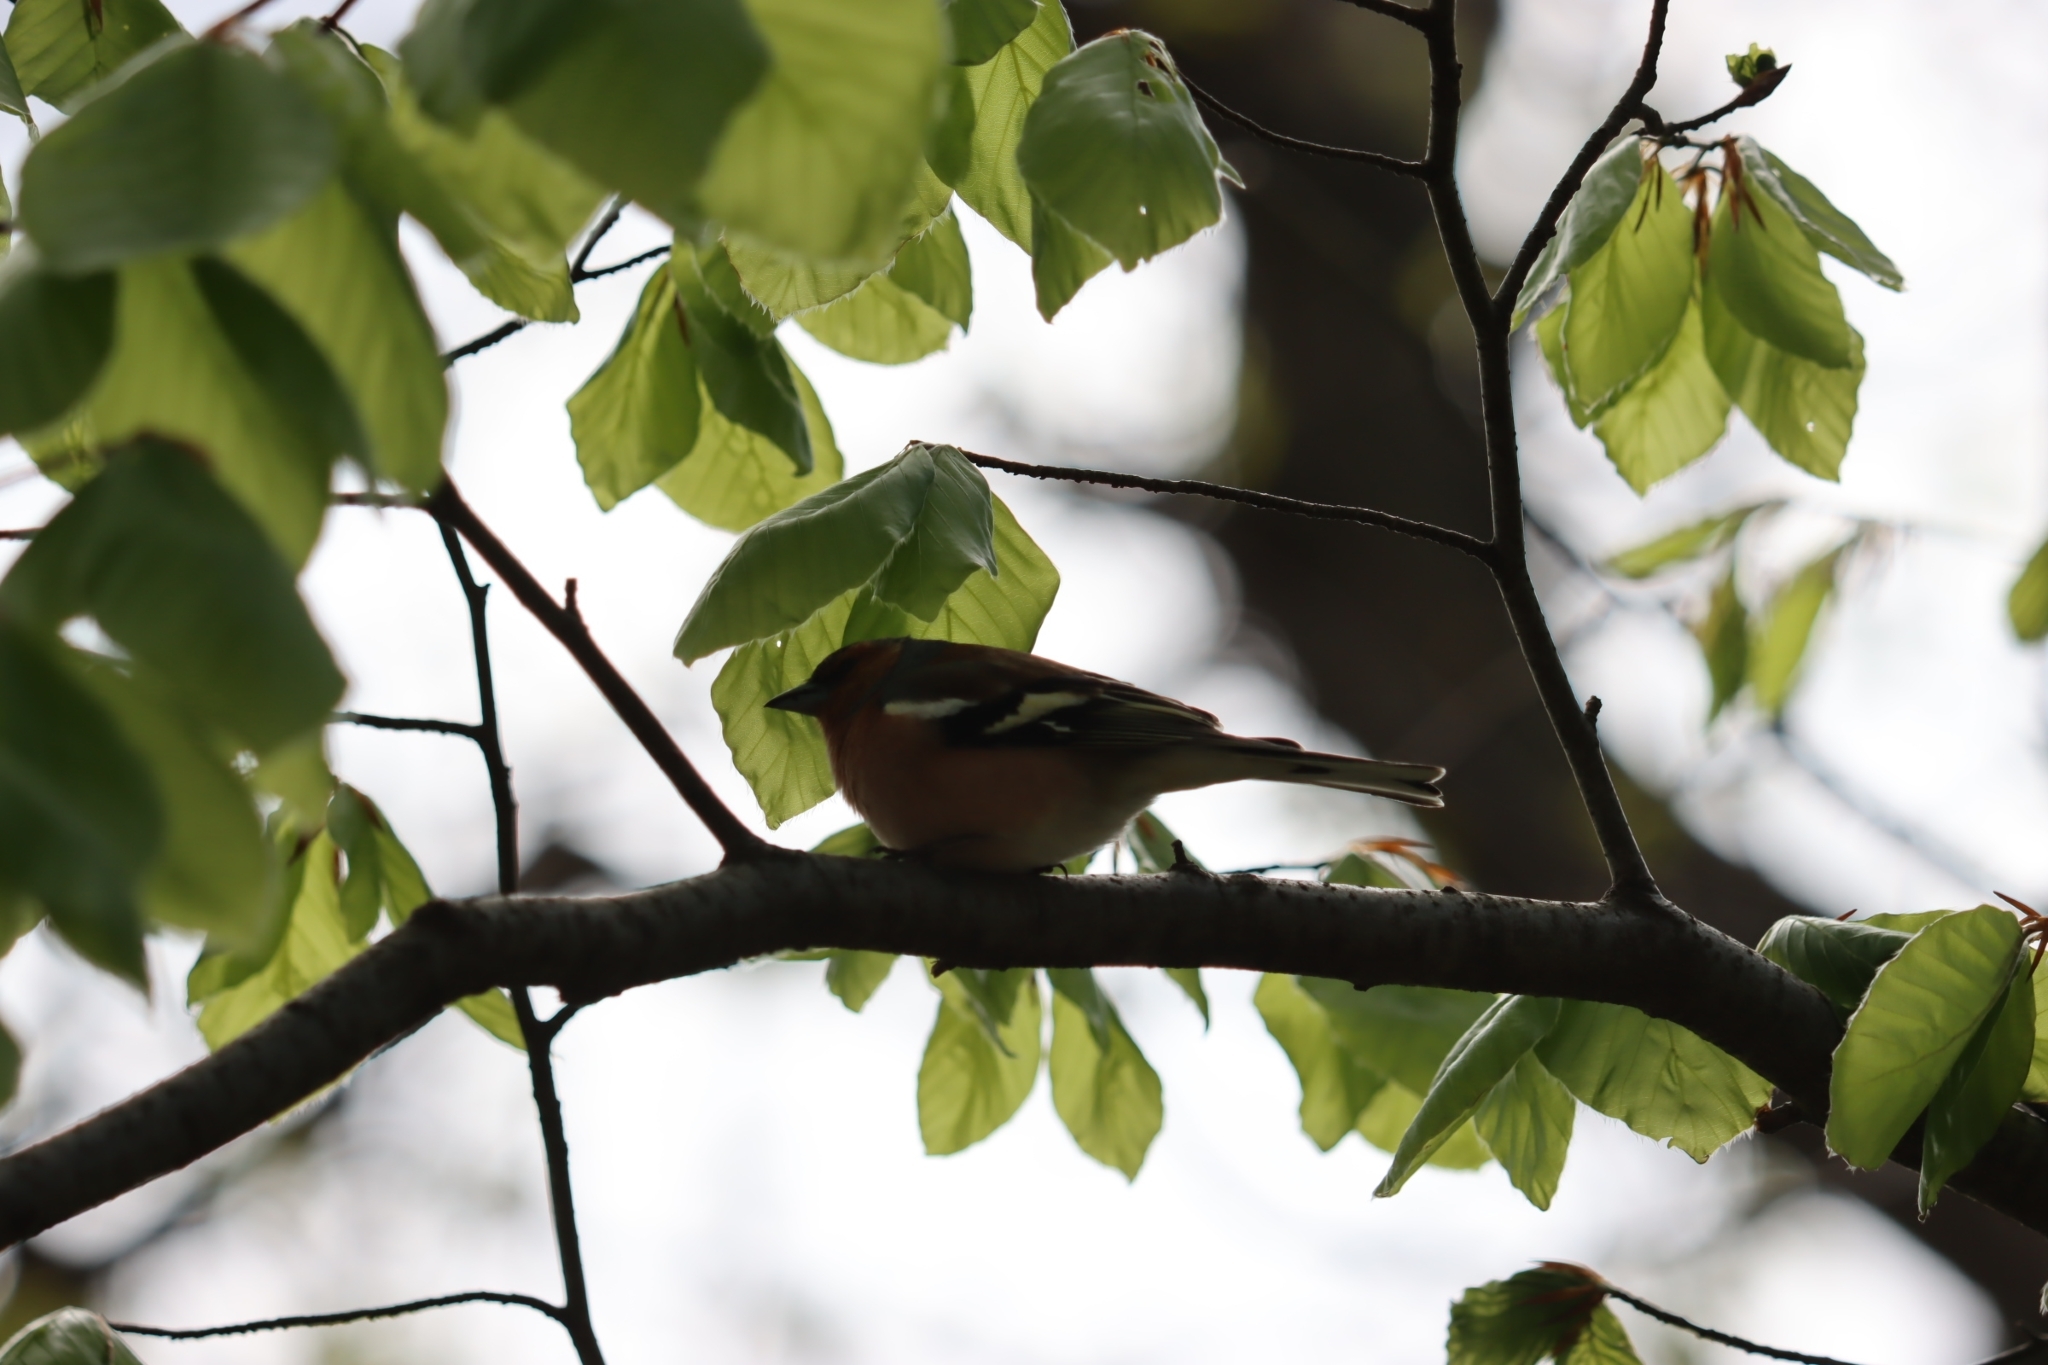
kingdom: Animalia
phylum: Chordata
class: Aves
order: Passeriformes
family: Fringillidae
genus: Fringilla
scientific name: Fringilla coelebs
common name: Common chaffinch
